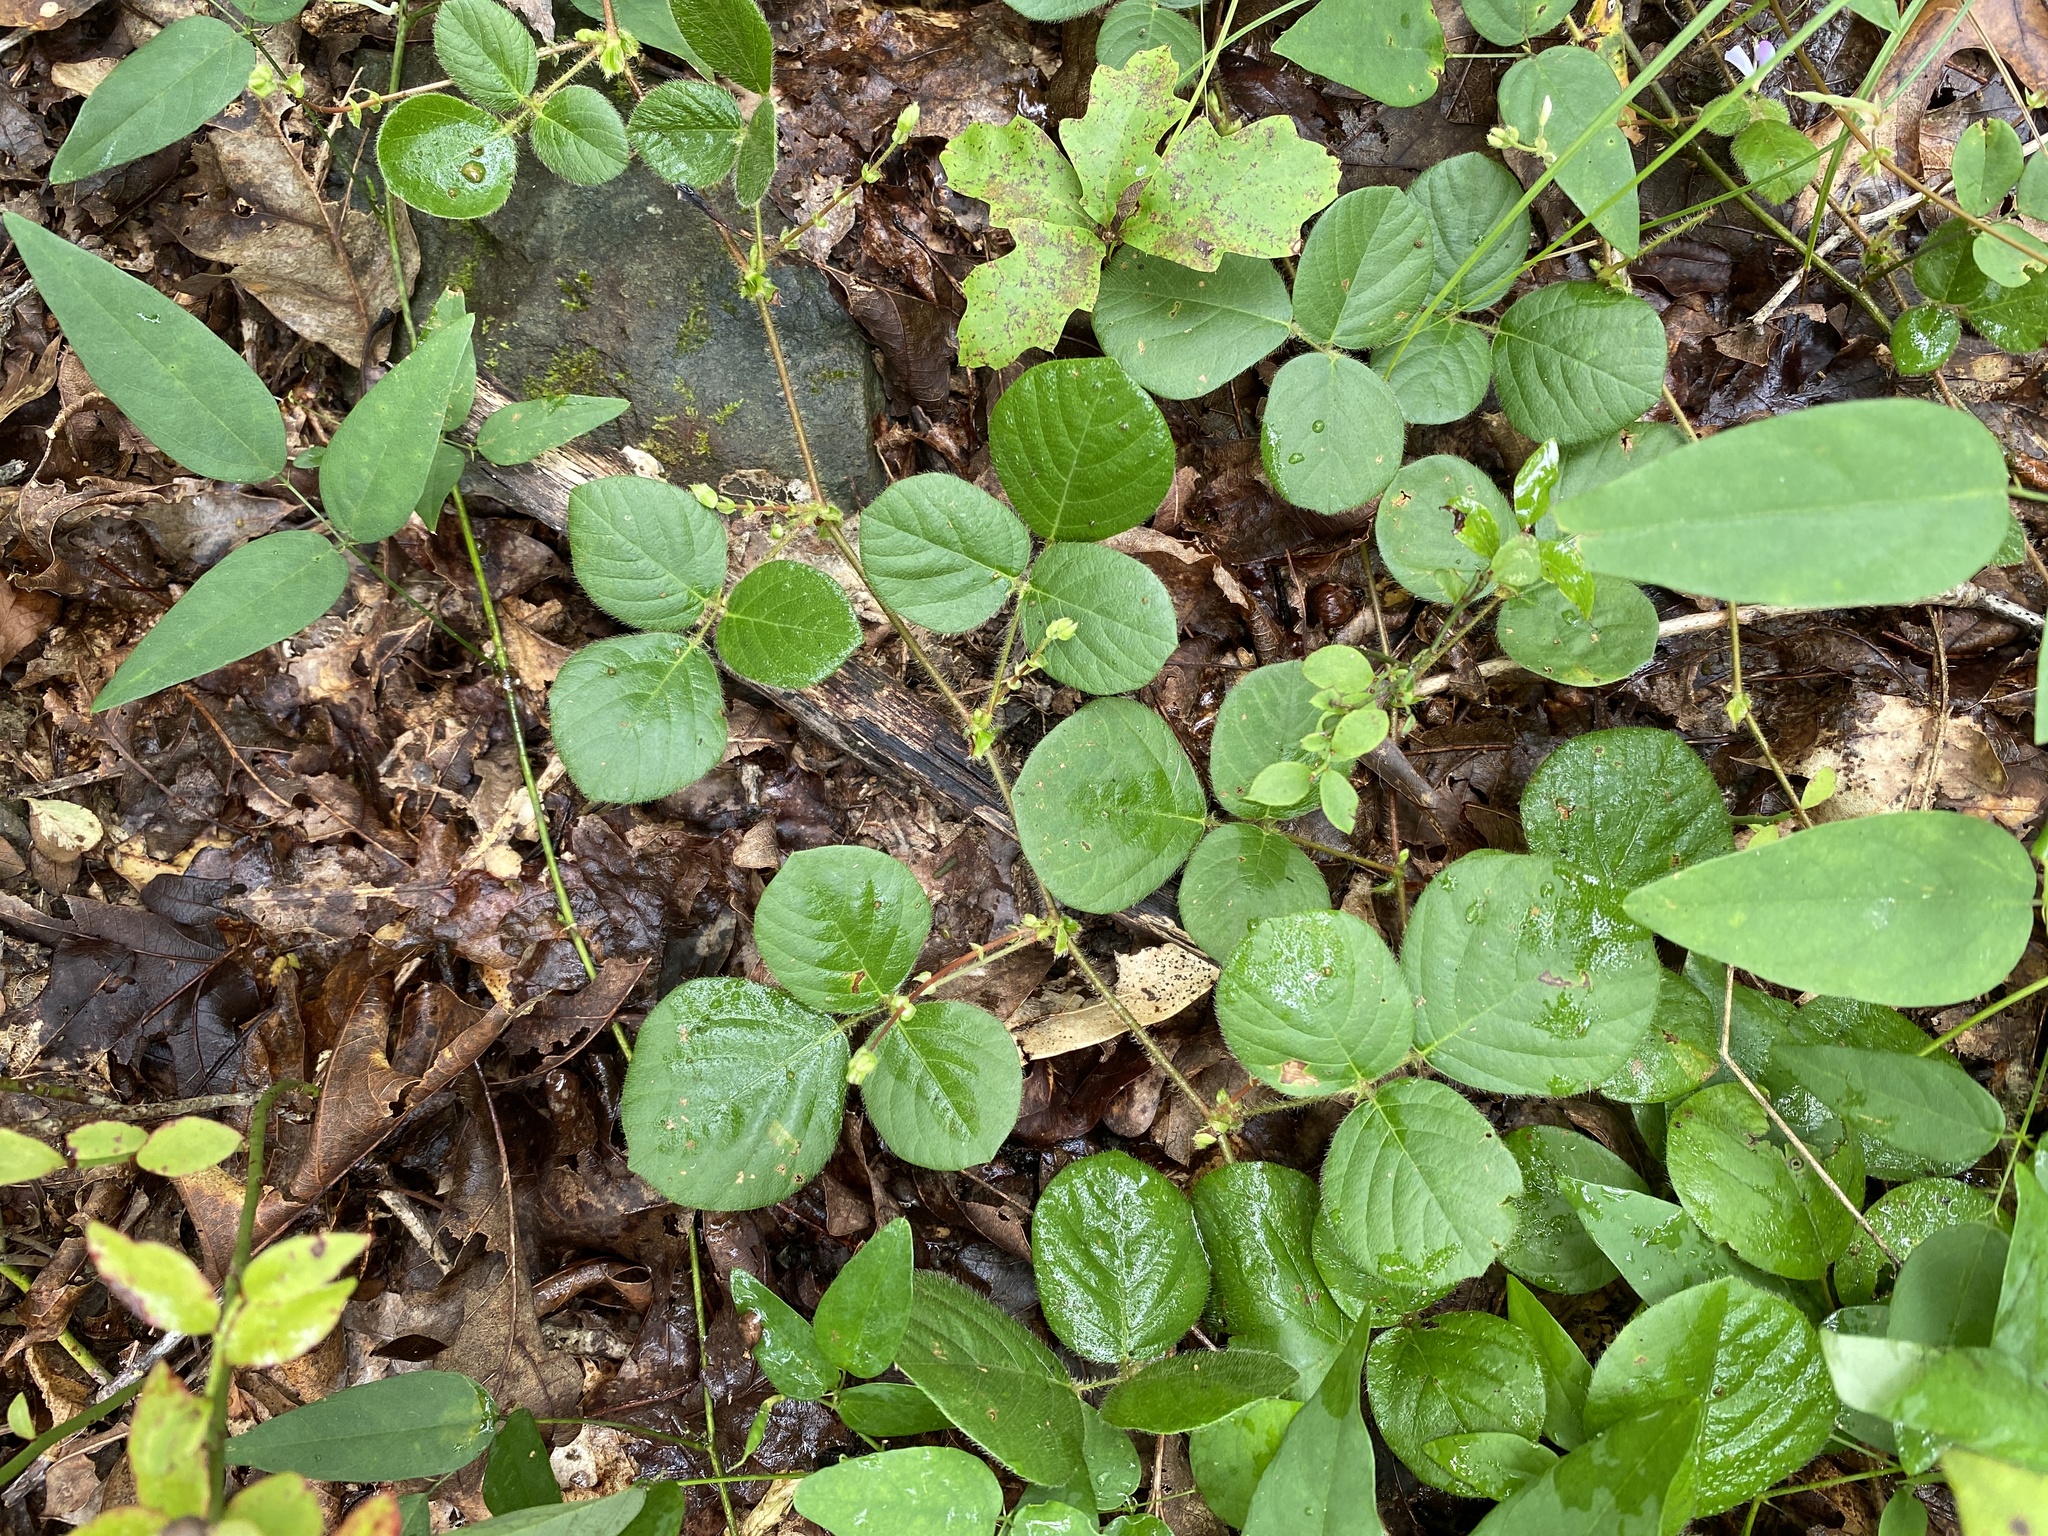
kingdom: Plantae
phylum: Tracheophyta
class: Magnoliopsida
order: Fabales
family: Fabaceae
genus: Desmodium
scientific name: Desmodium rotundifolium
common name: Dollarleaf
